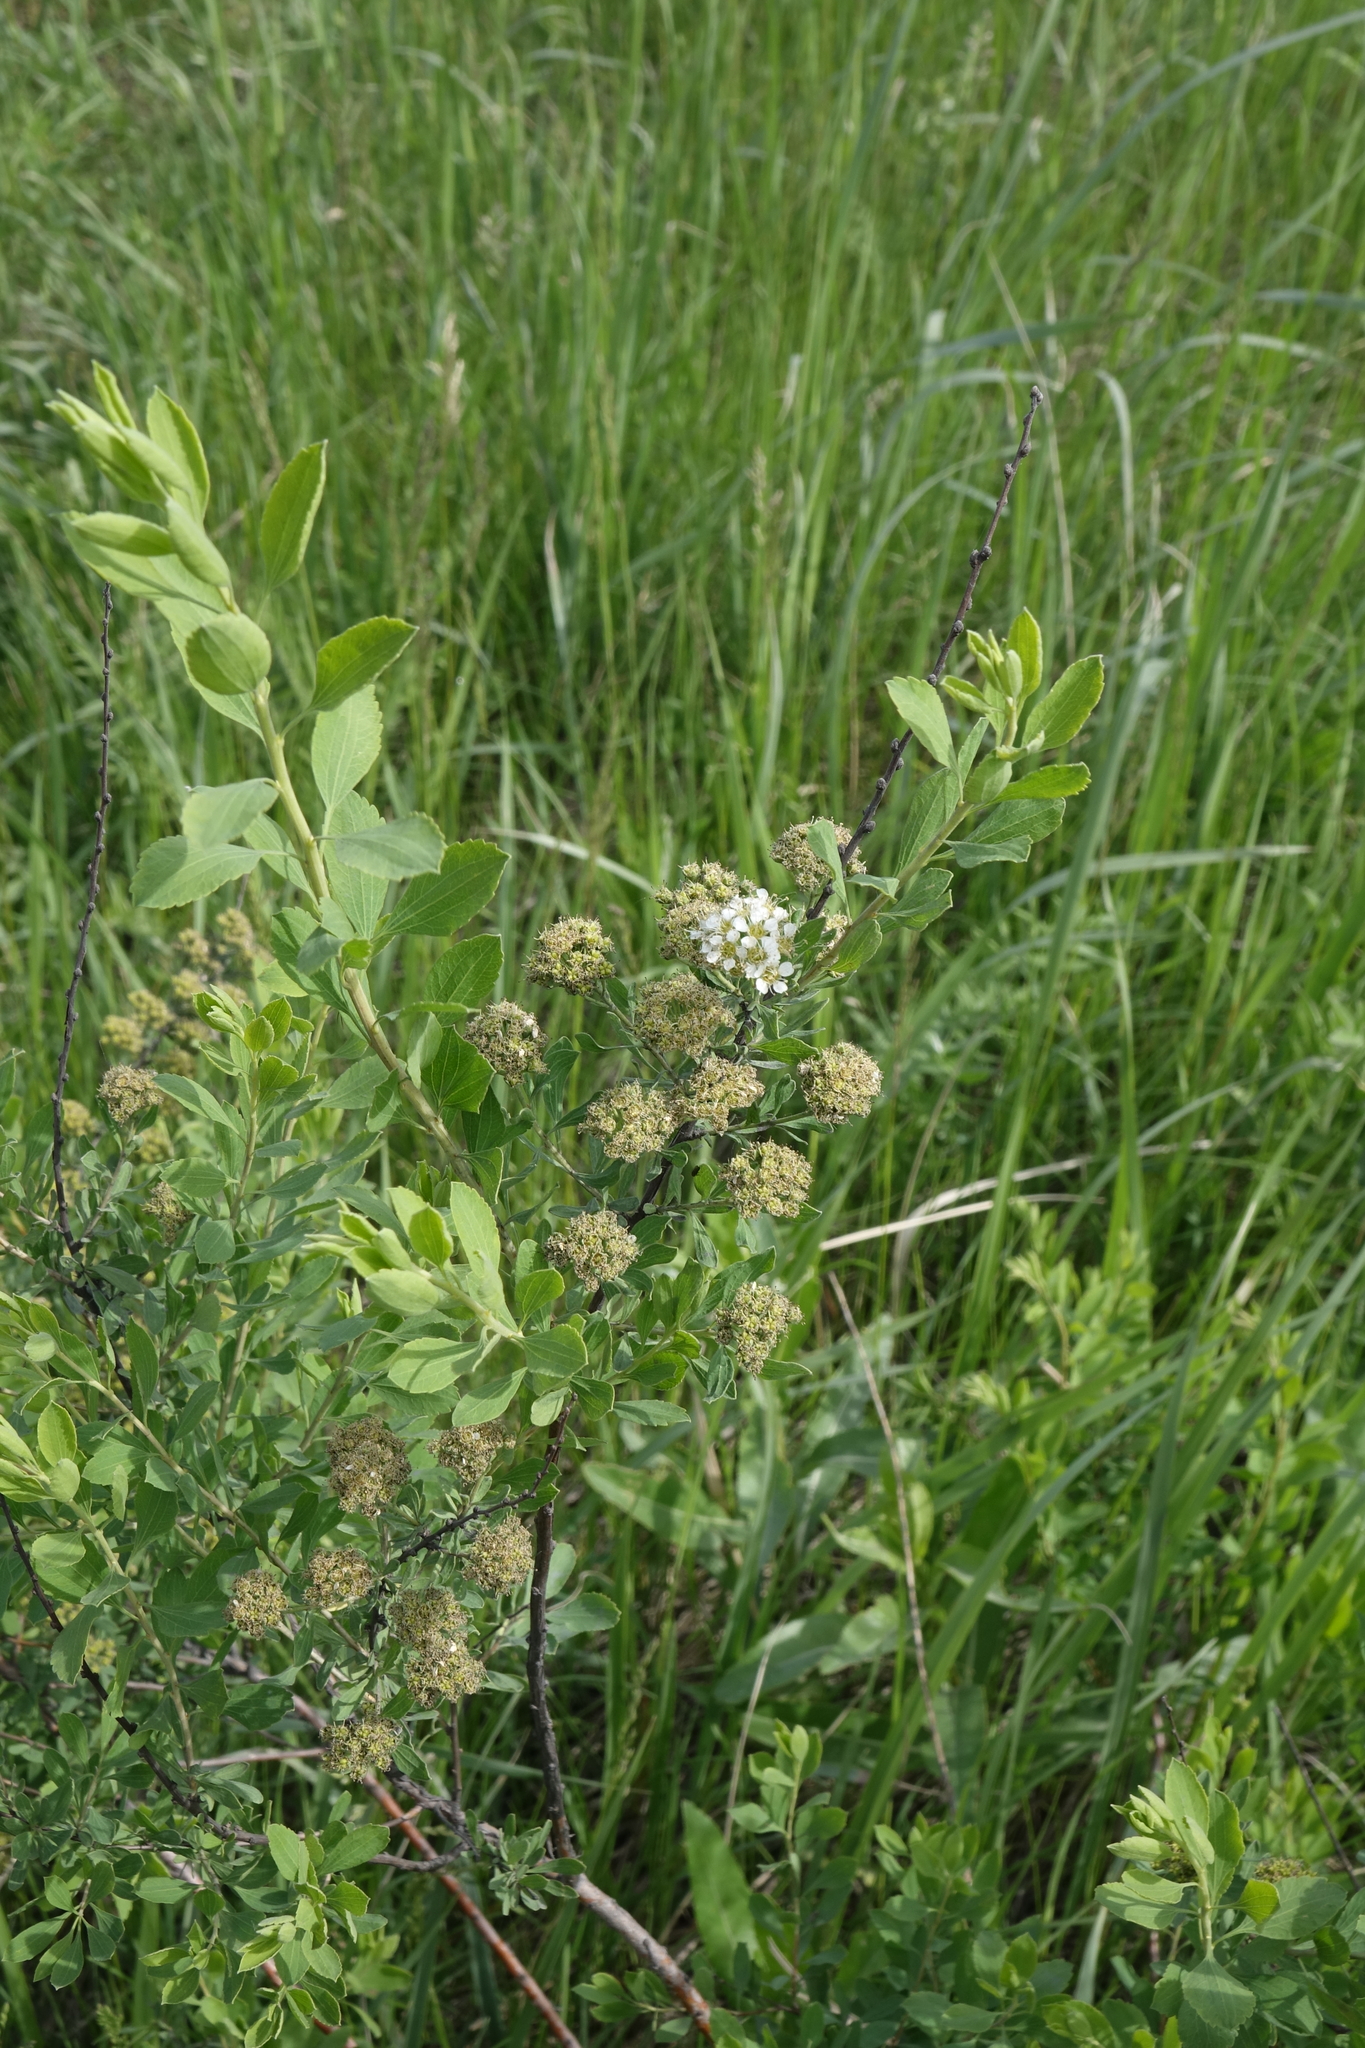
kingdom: Plantae
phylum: Tracheophyta
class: Magnoliopsida
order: Rosales
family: Rosaceae
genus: Spiraea
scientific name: Spiraea crenata
